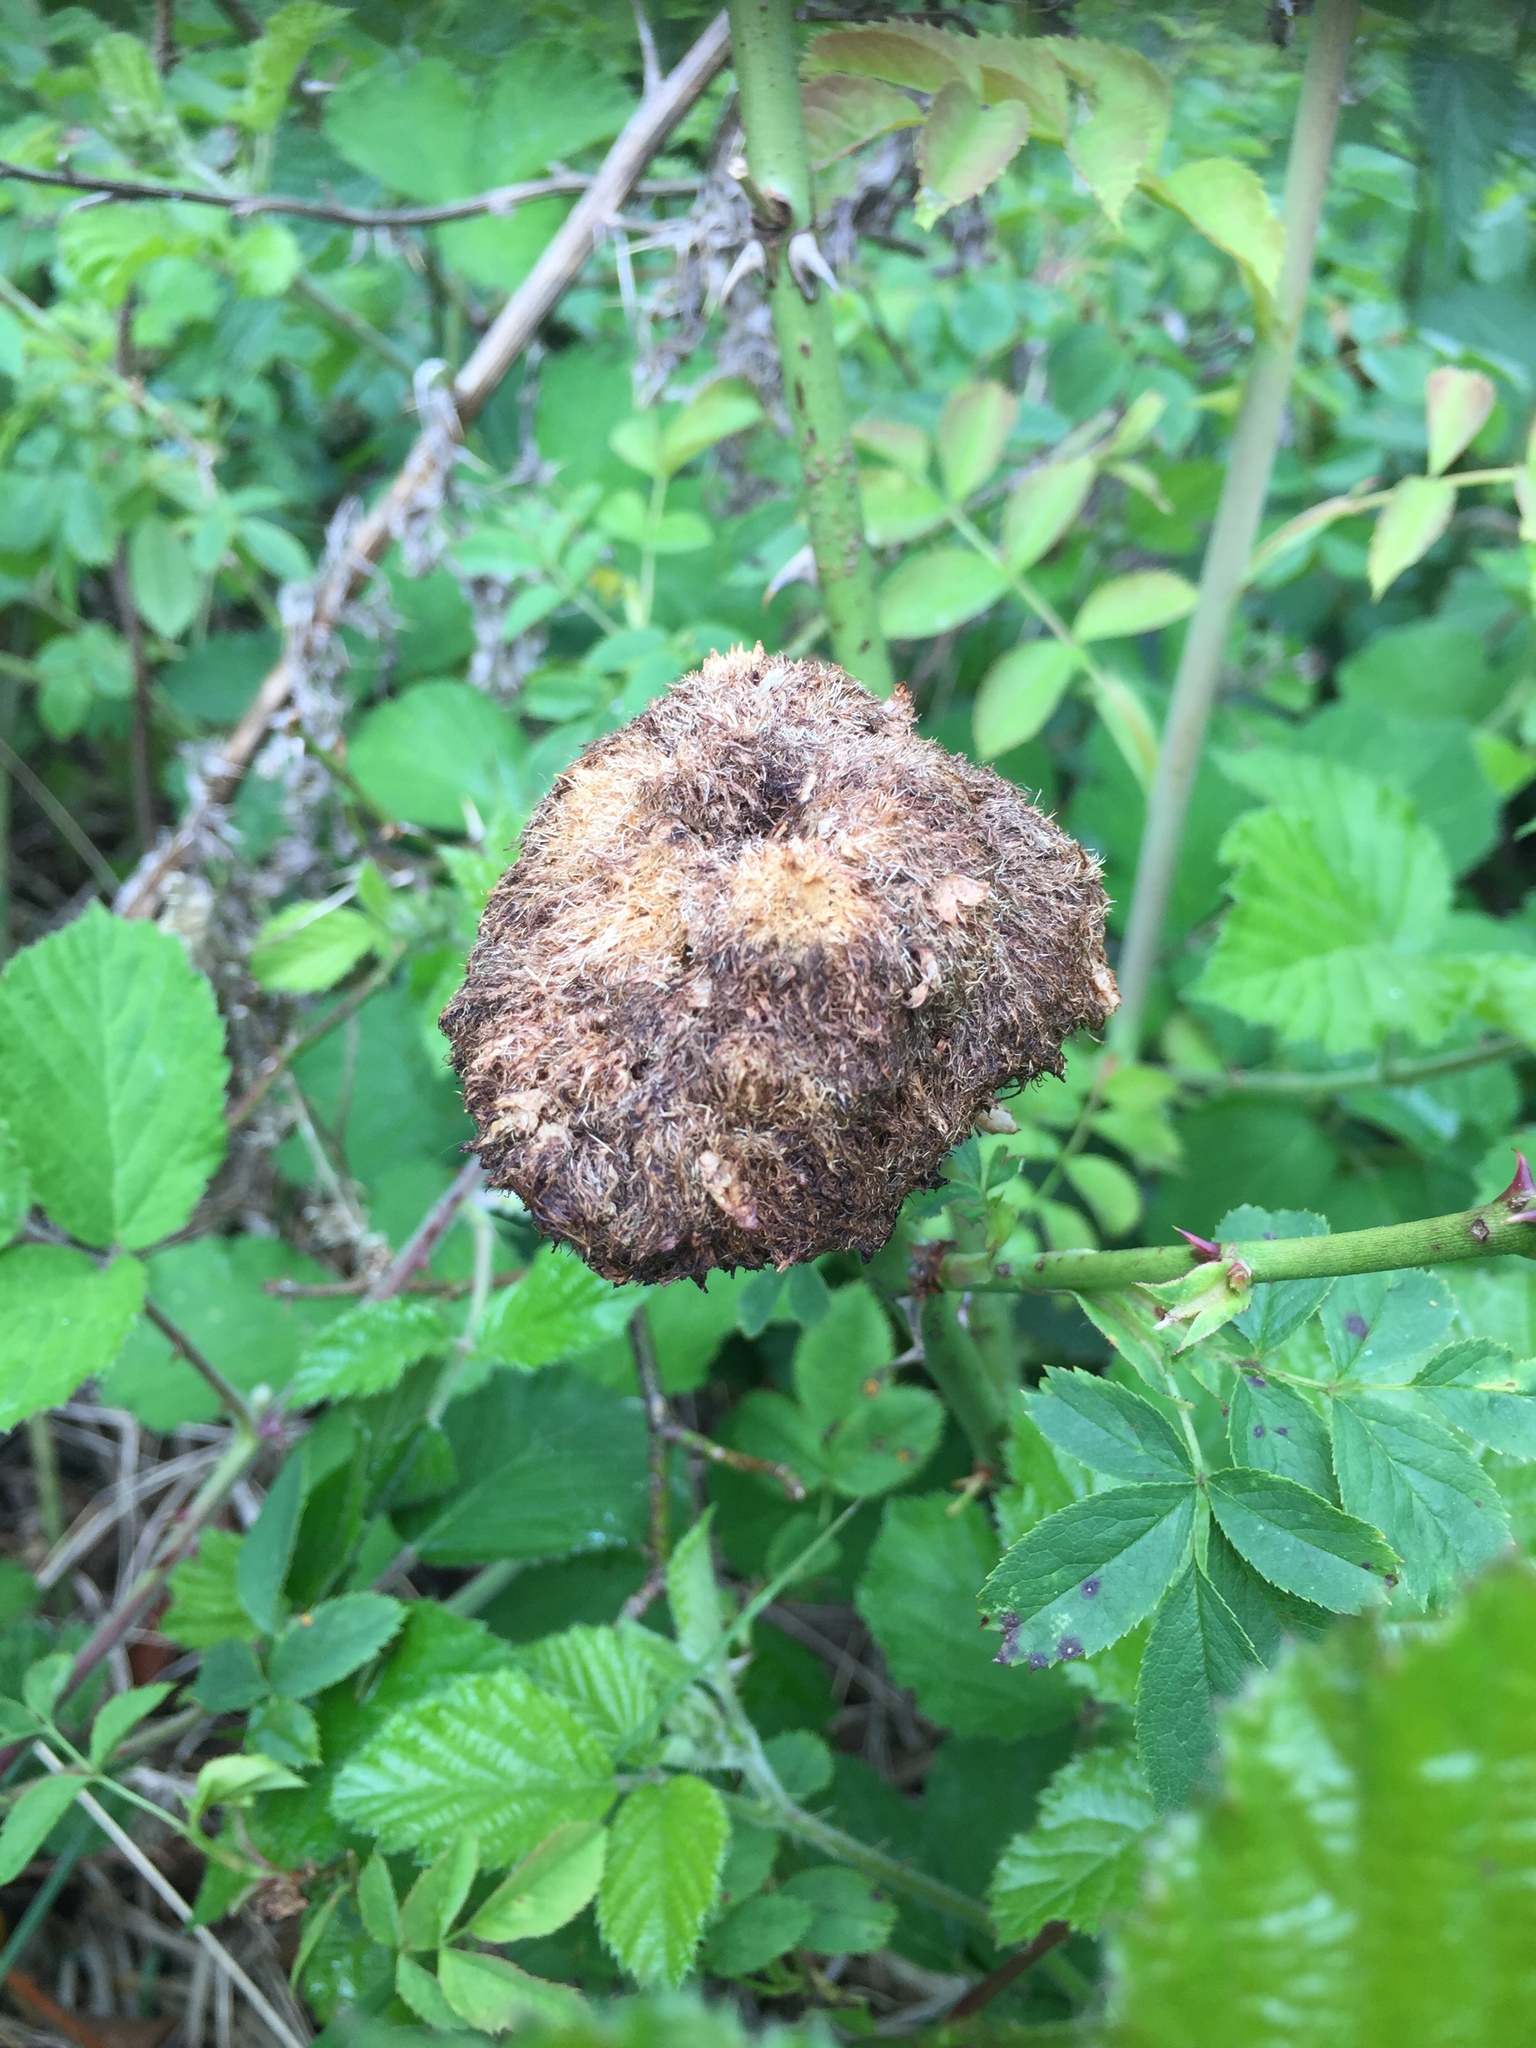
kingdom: Animalia
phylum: Arthropoda
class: Insecta
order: Hymenoptera
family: Cynipidae
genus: Diplolepis
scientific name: Diplolepis rosae
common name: Bedeguar gall
